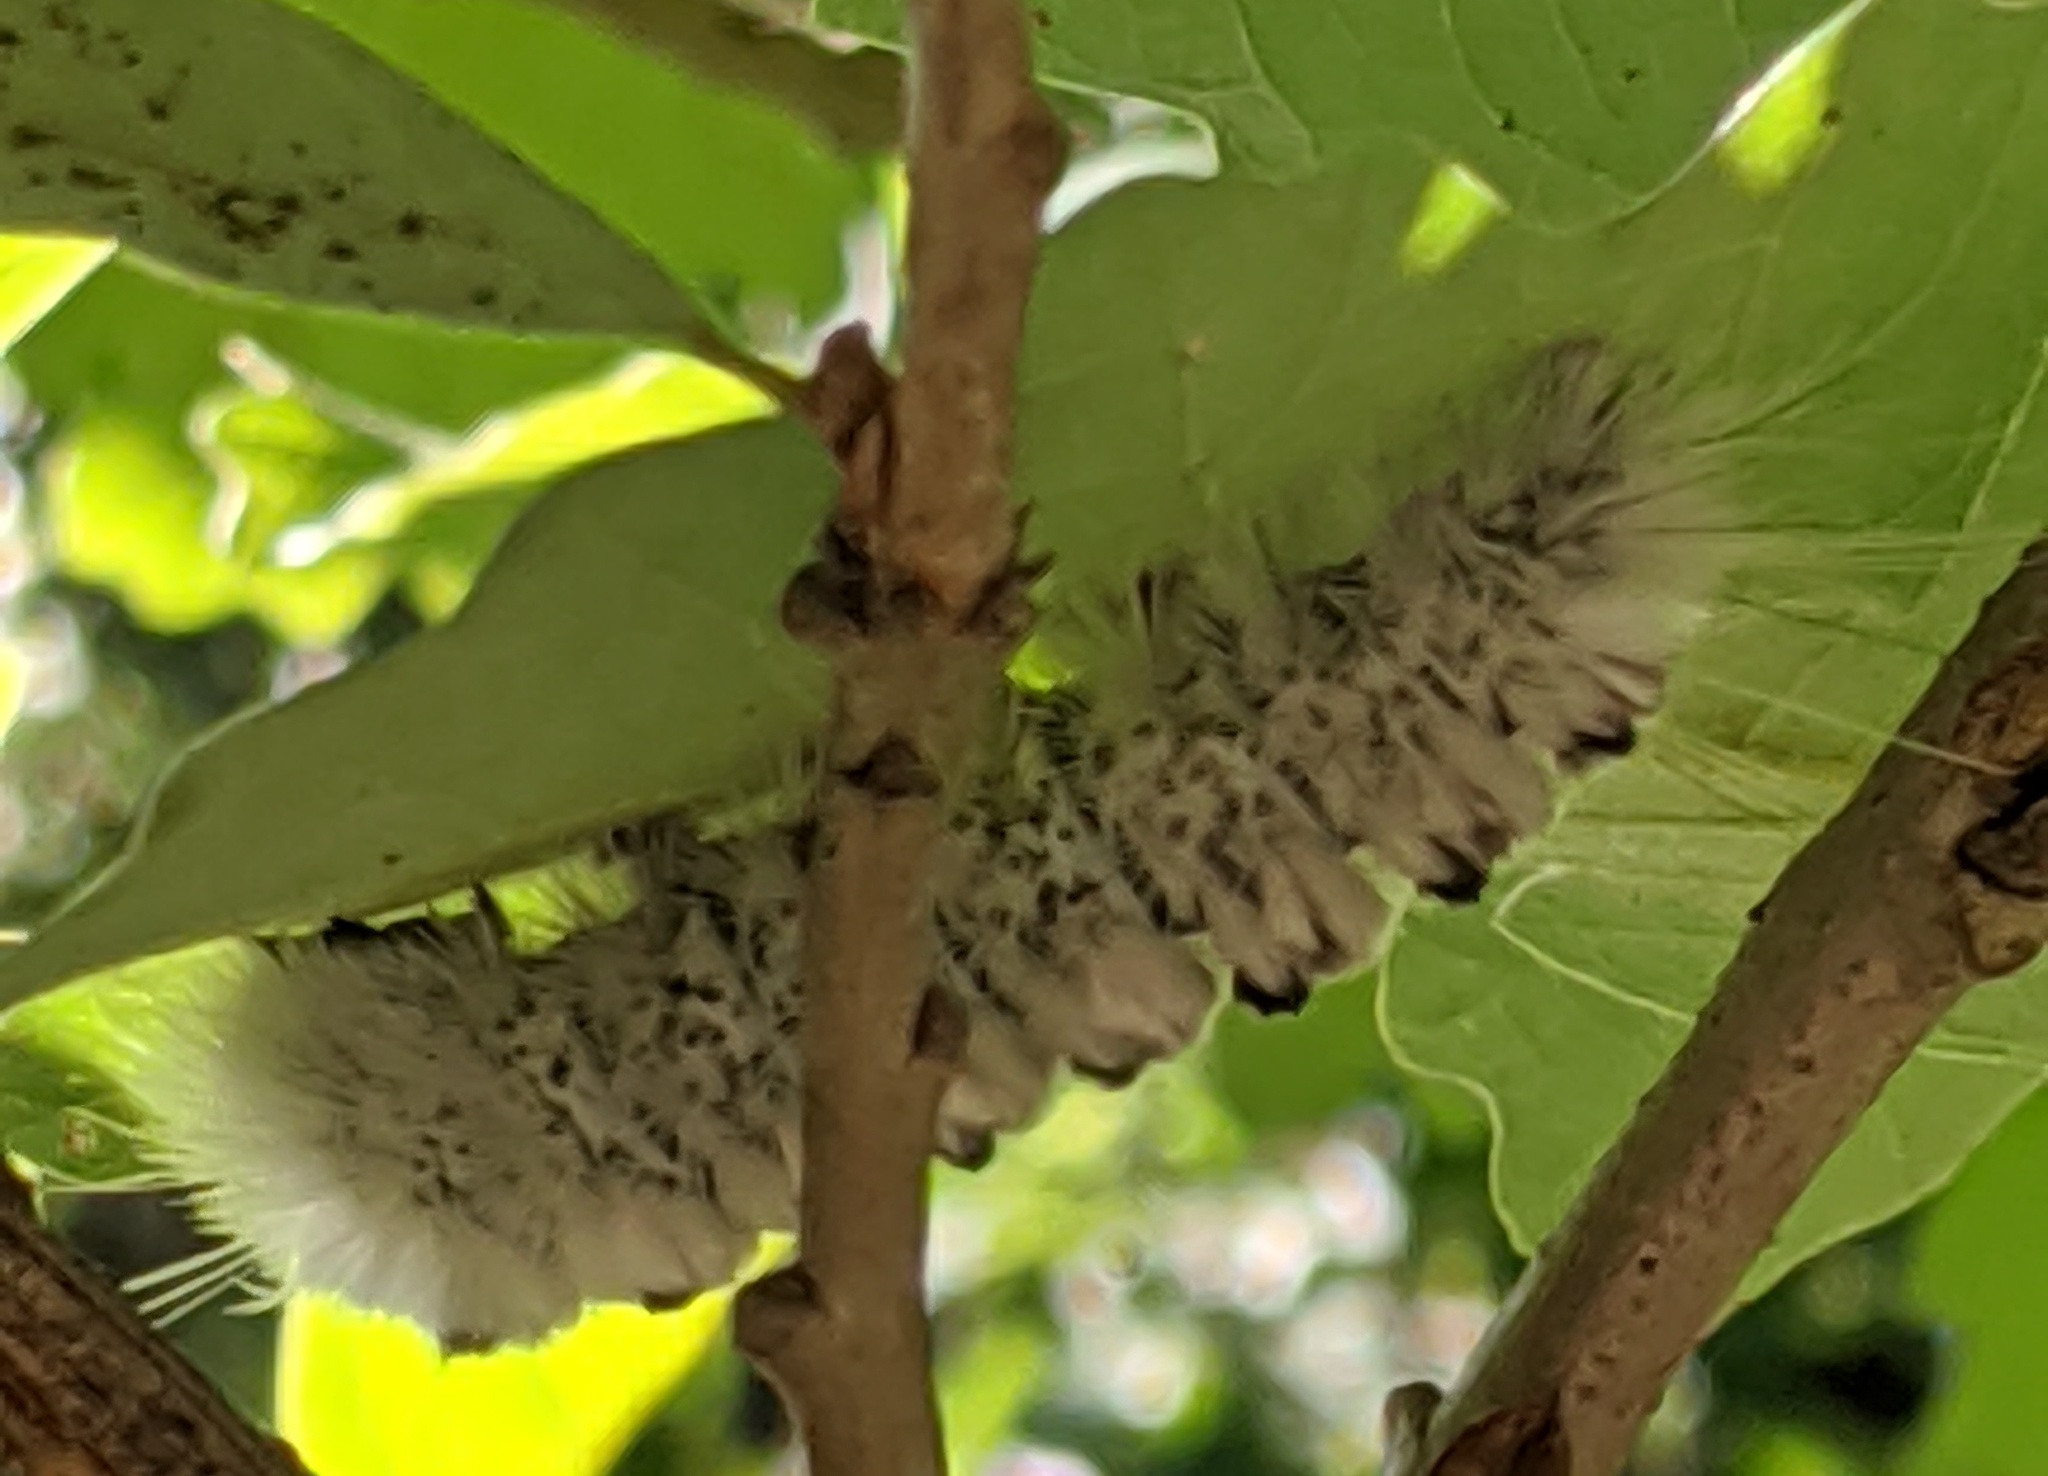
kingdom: Animalia
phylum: Arthropoda
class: Insecta
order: Lepidoptera
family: Erebidae
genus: Lophocampa
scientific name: Lophocampa caryae
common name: Hickory tussock moth
